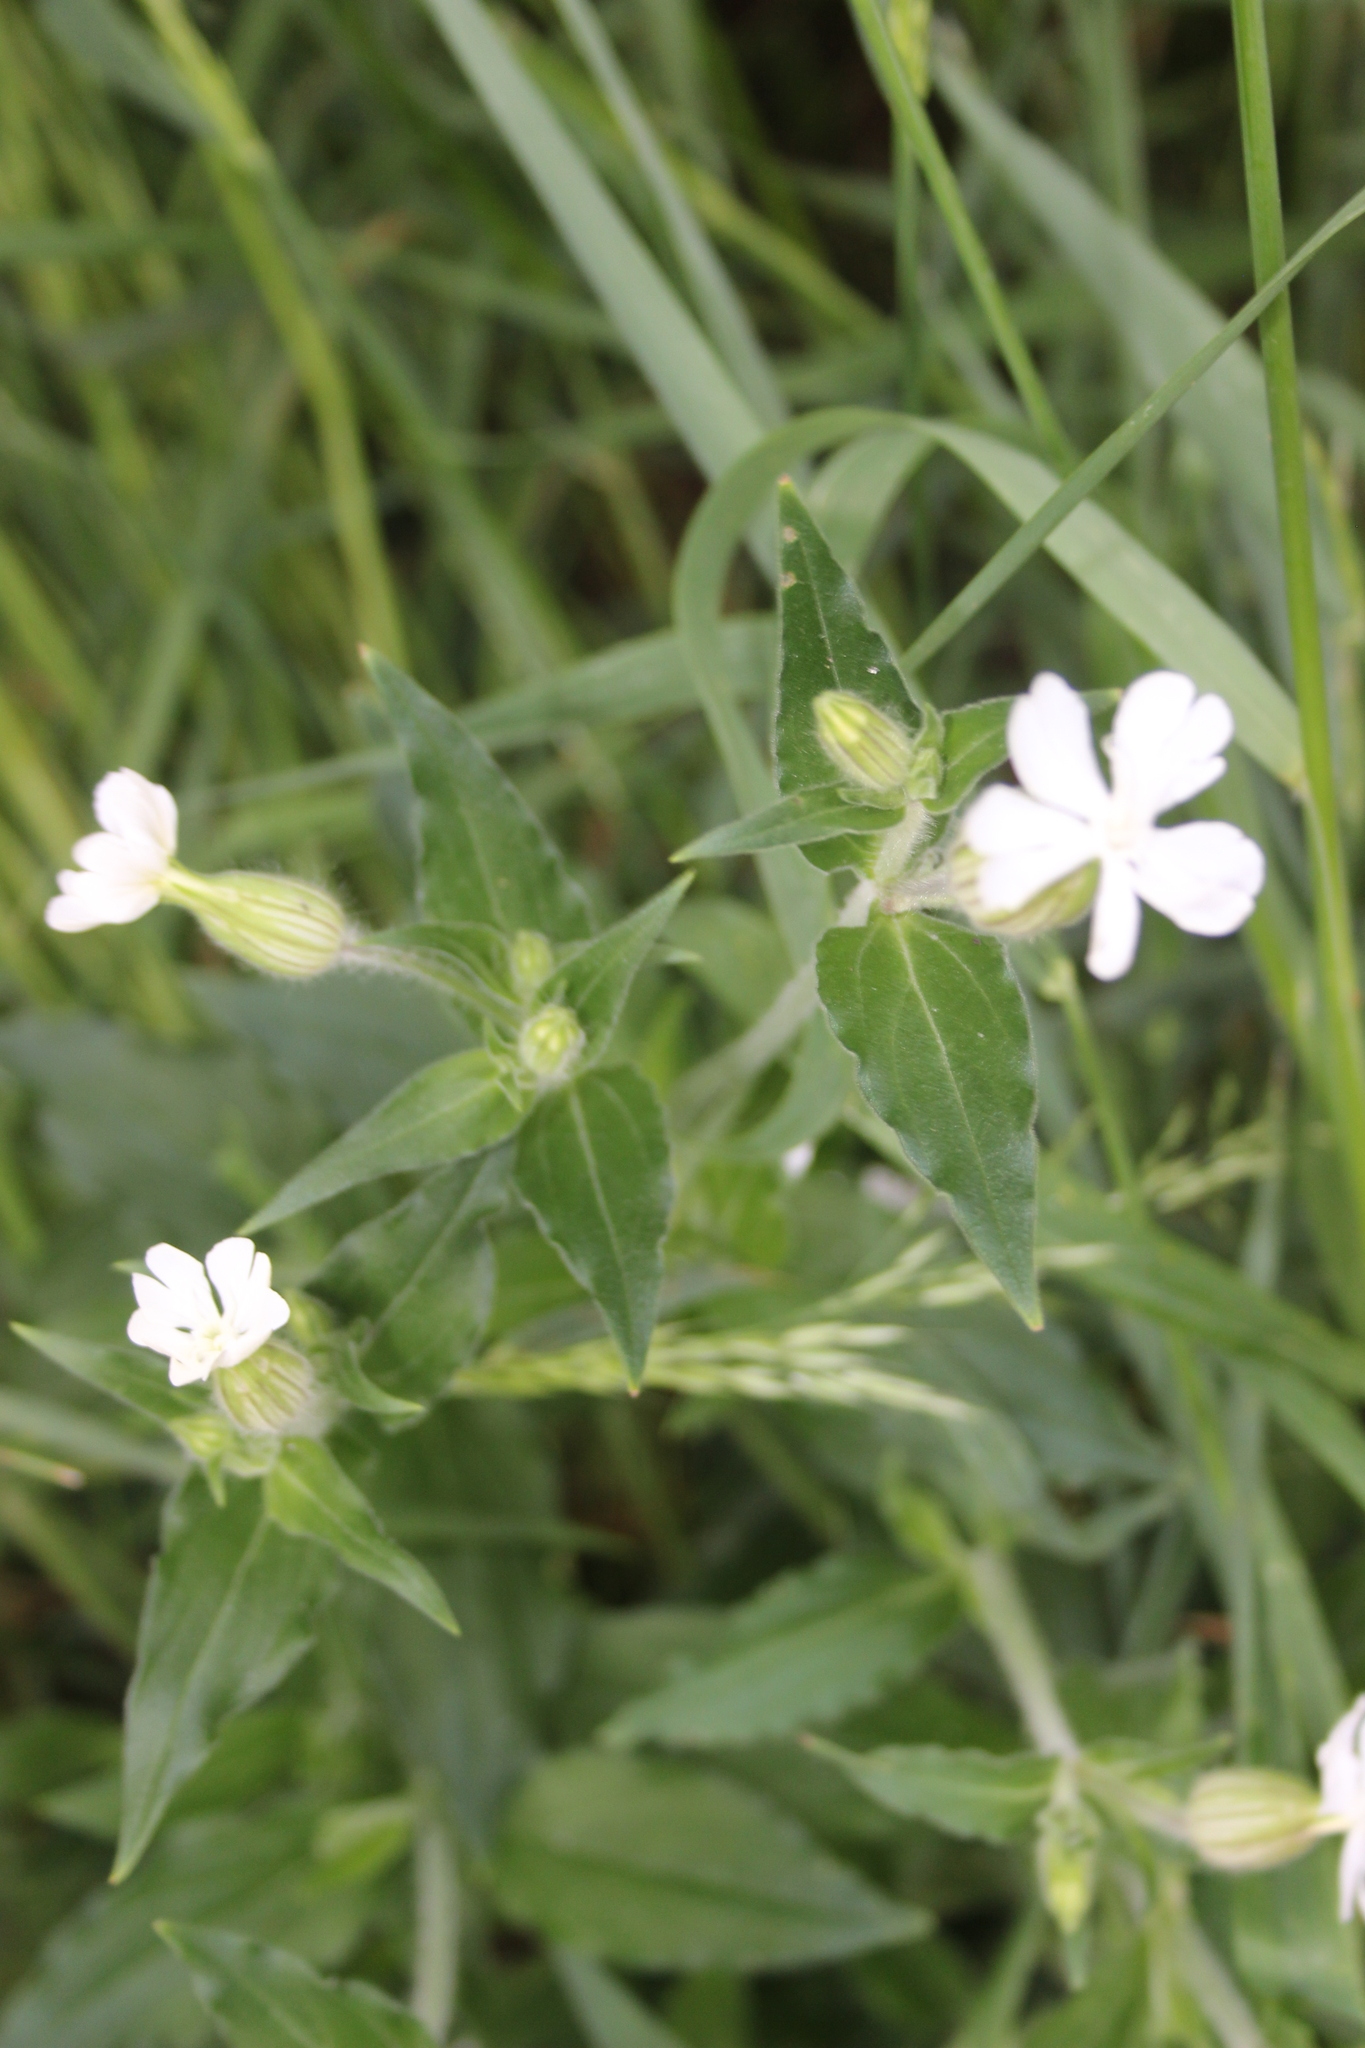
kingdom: Plantae
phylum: Tracheophyta
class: Magnoliopsida
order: Caryophyllales
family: Caryophyllaceae
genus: Silene
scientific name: Silene latifolia
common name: White campion
